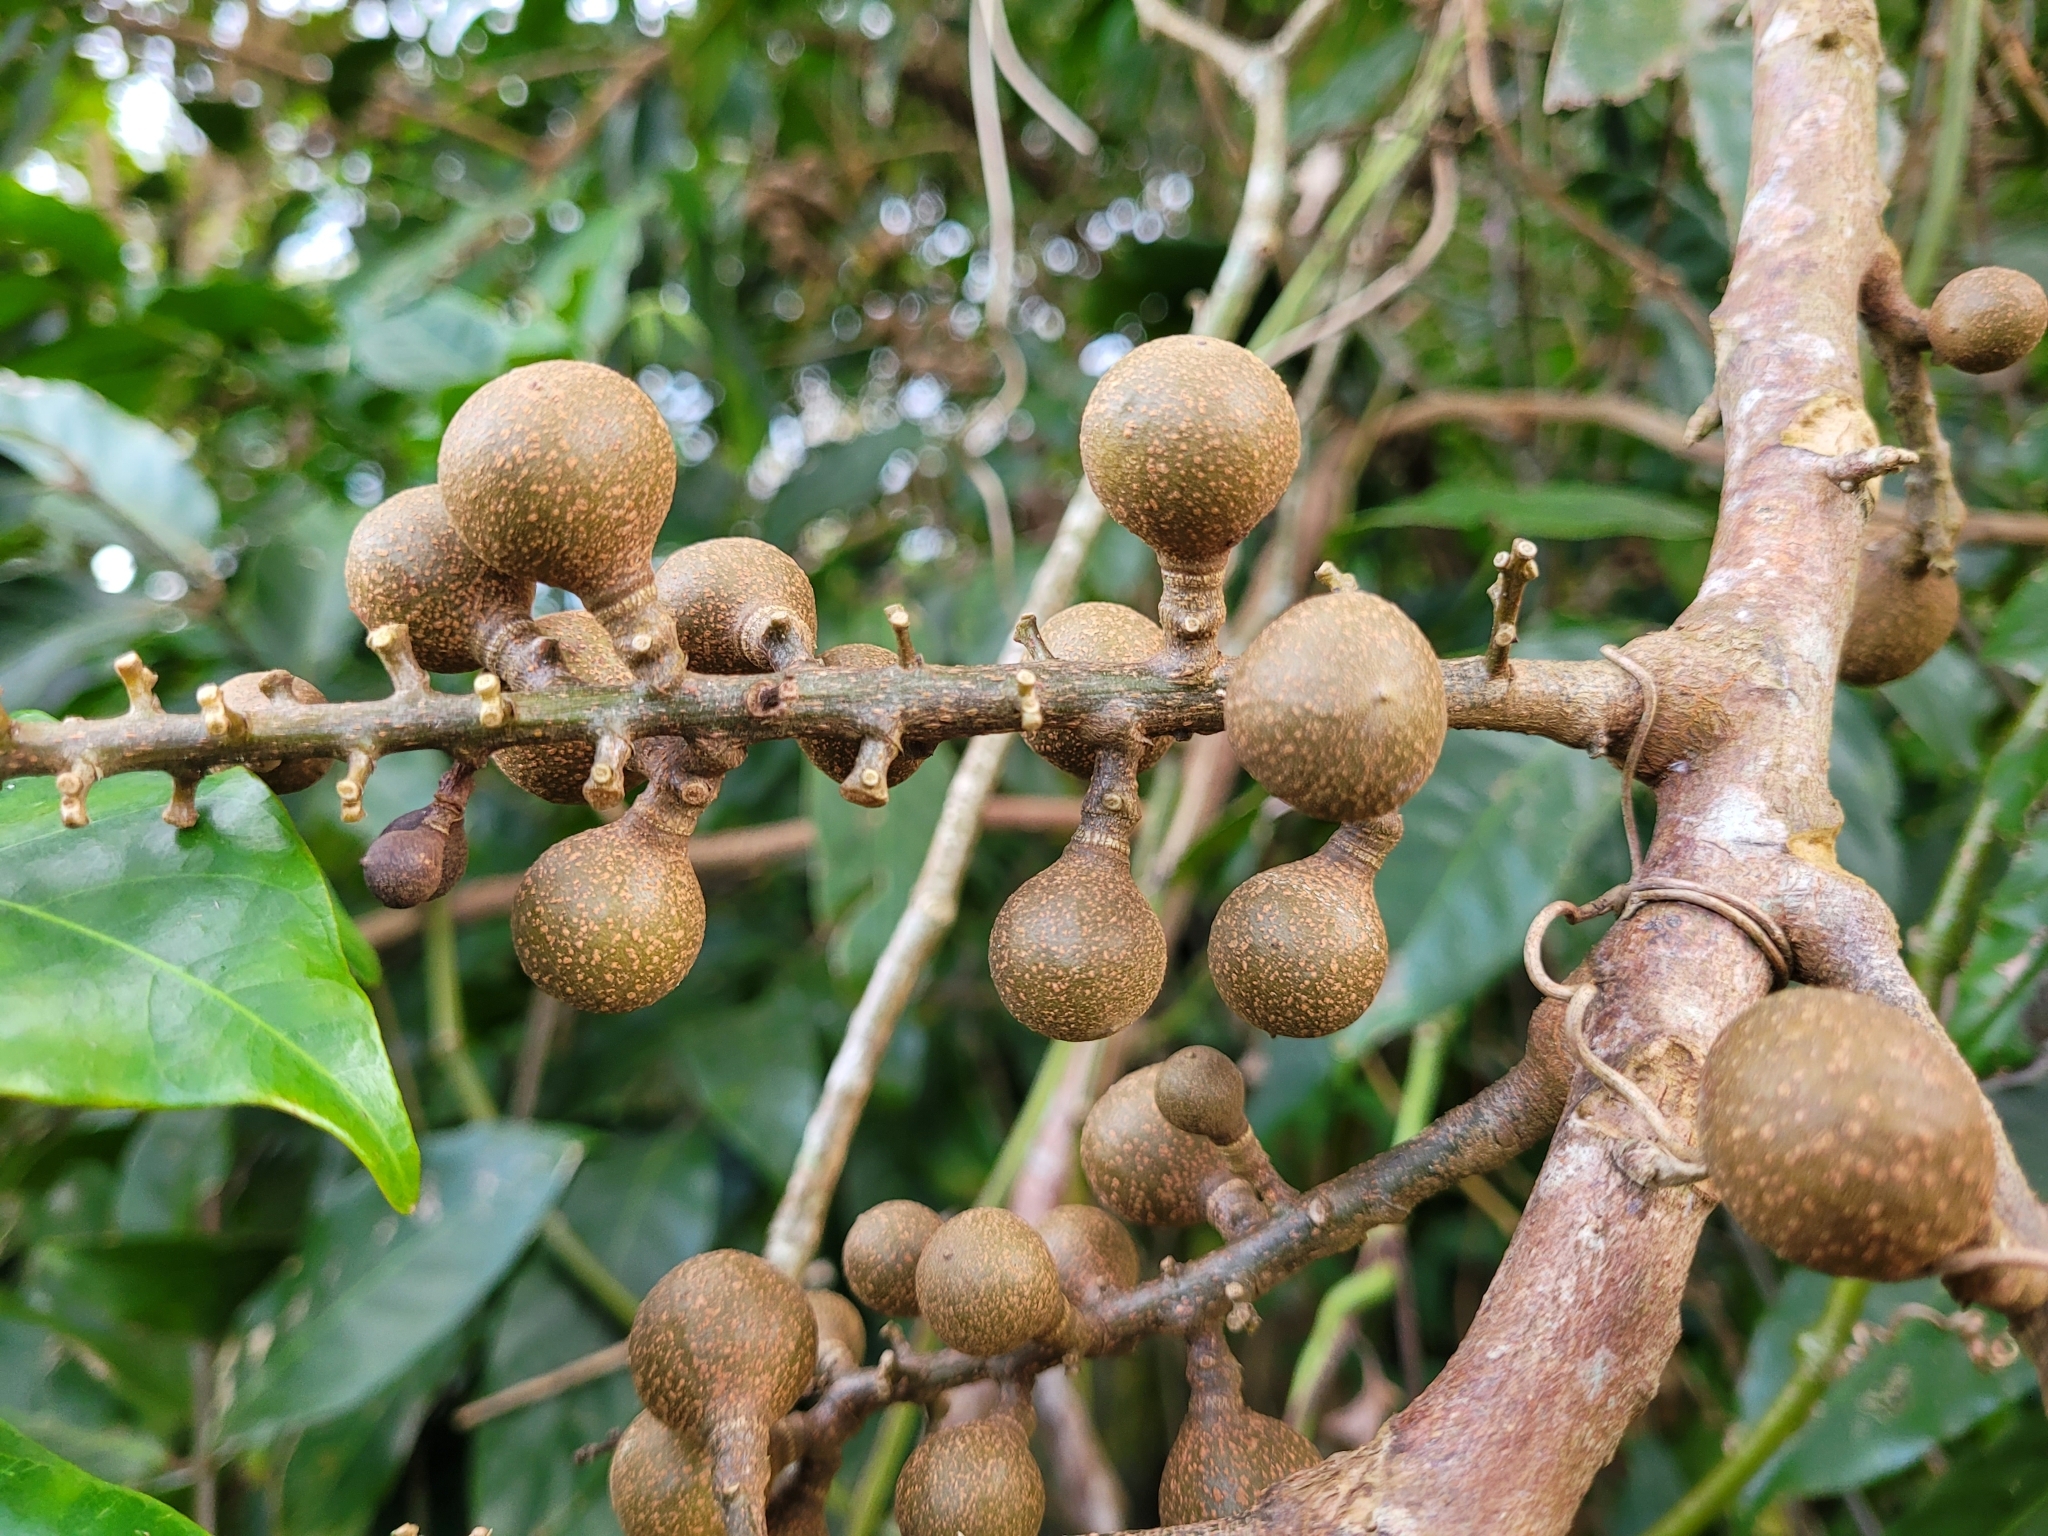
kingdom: Plantae
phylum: Tracheophyta
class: Magnoliopsida
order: Sapindales
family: Meliaceae
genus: Guarea
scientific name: Guarea guidonia
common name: American muskwood
